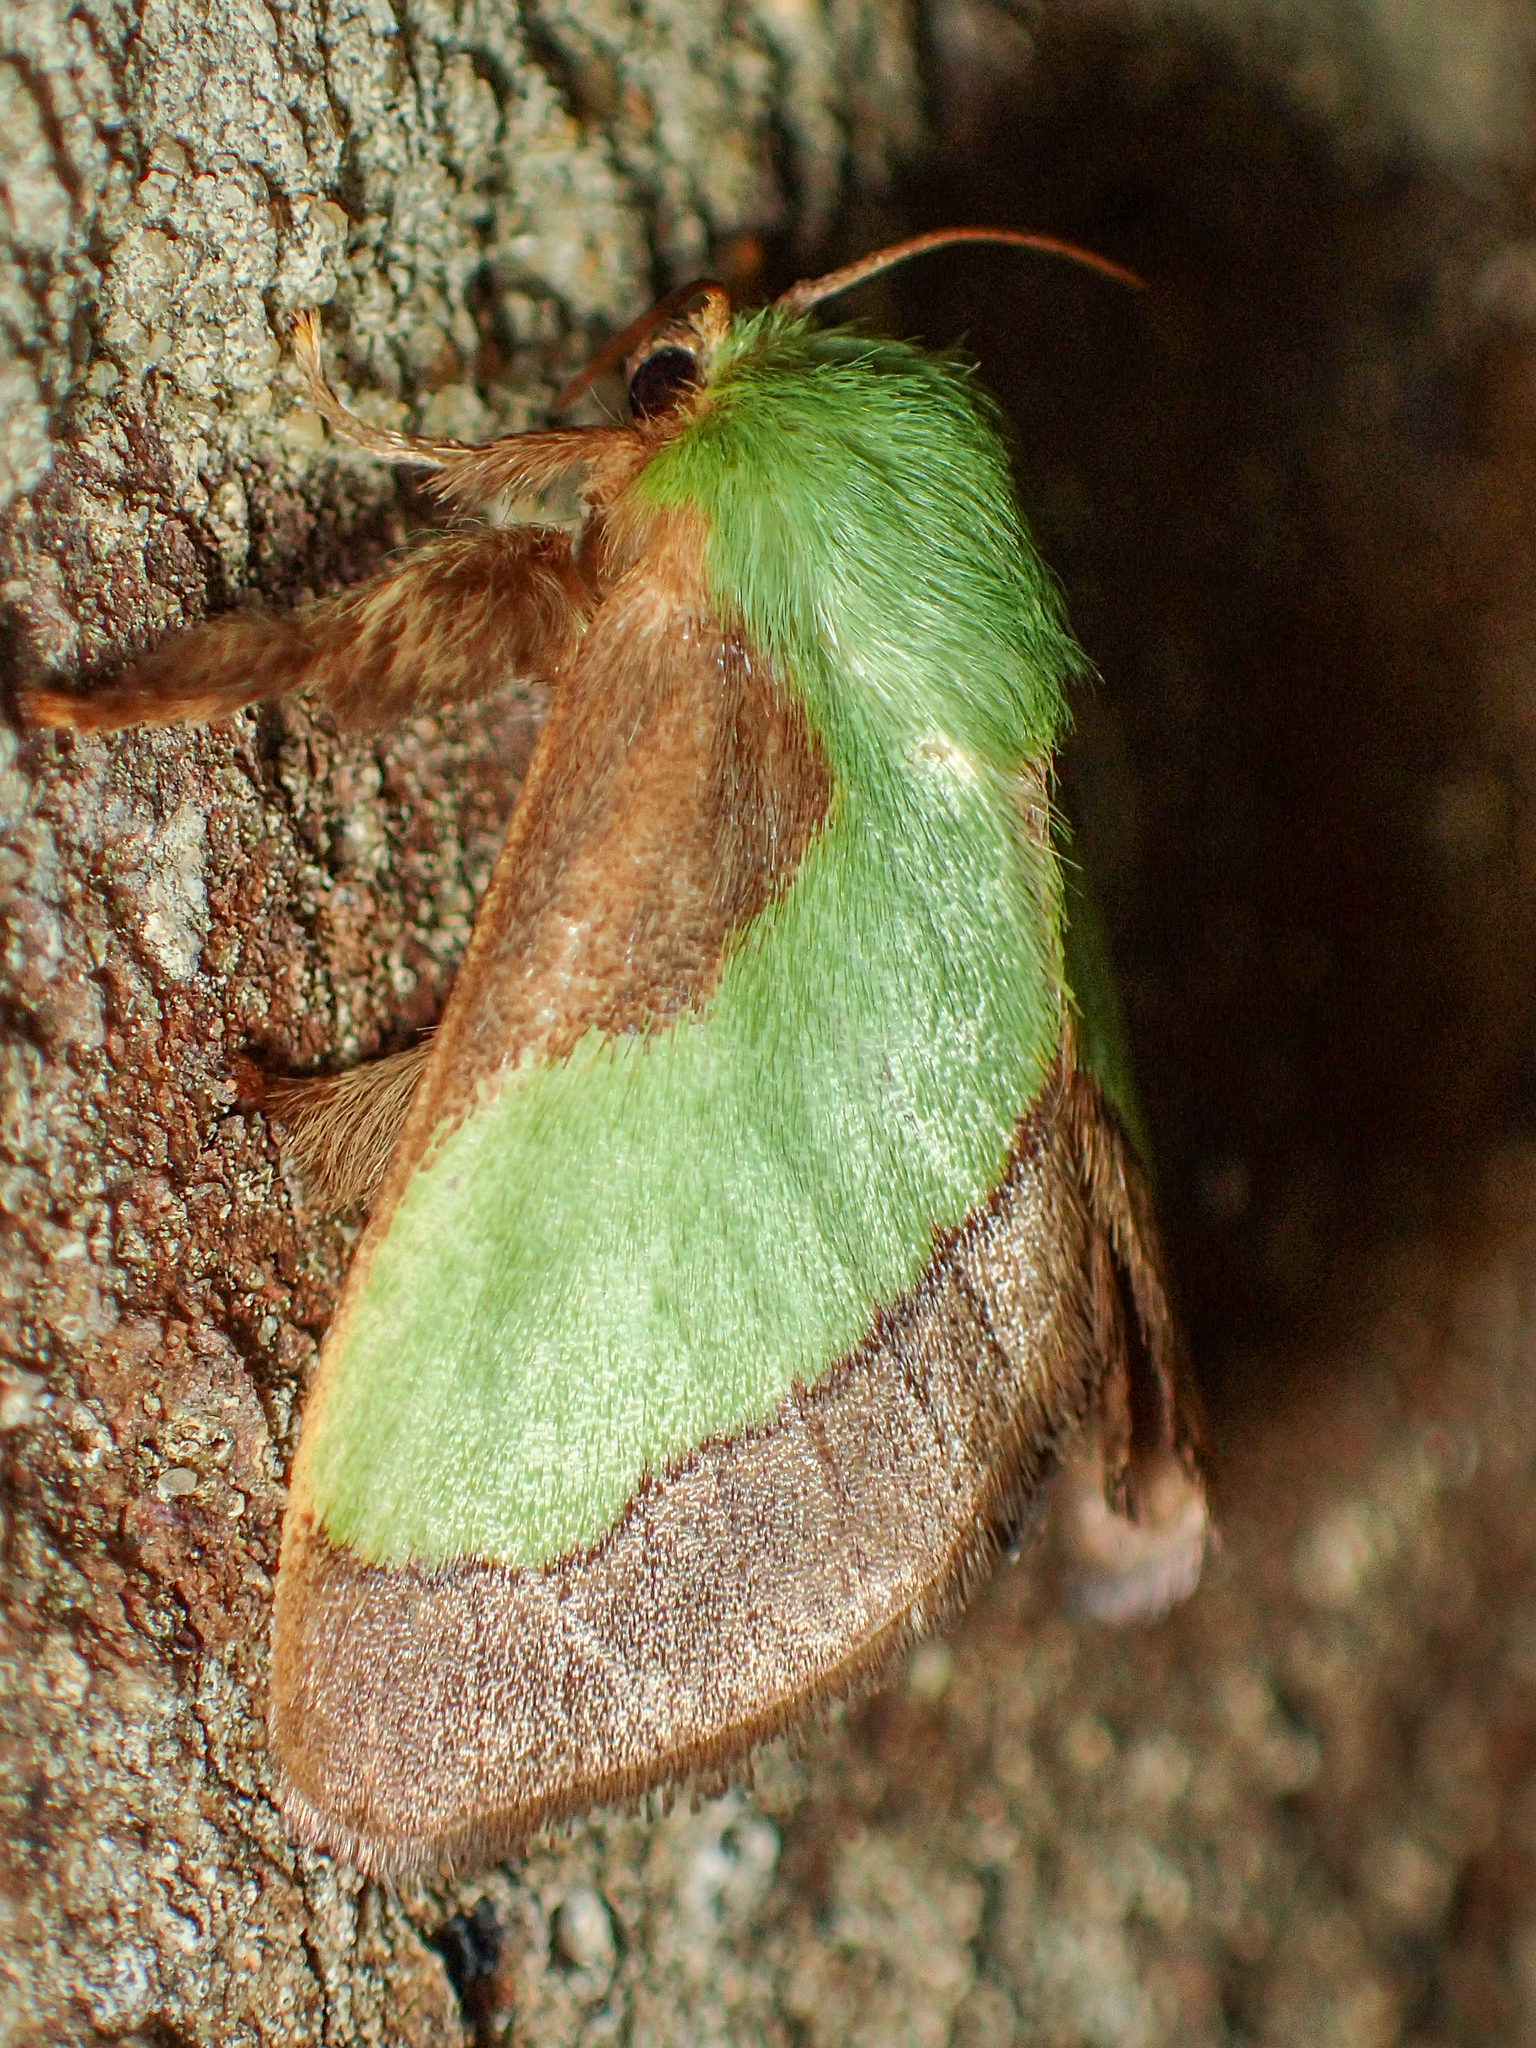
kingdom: Animalia
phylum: Arthropoda
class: Insecta
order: Lepidoptera
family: Limacodidae
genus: Parasa
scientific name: Parasa chloris
